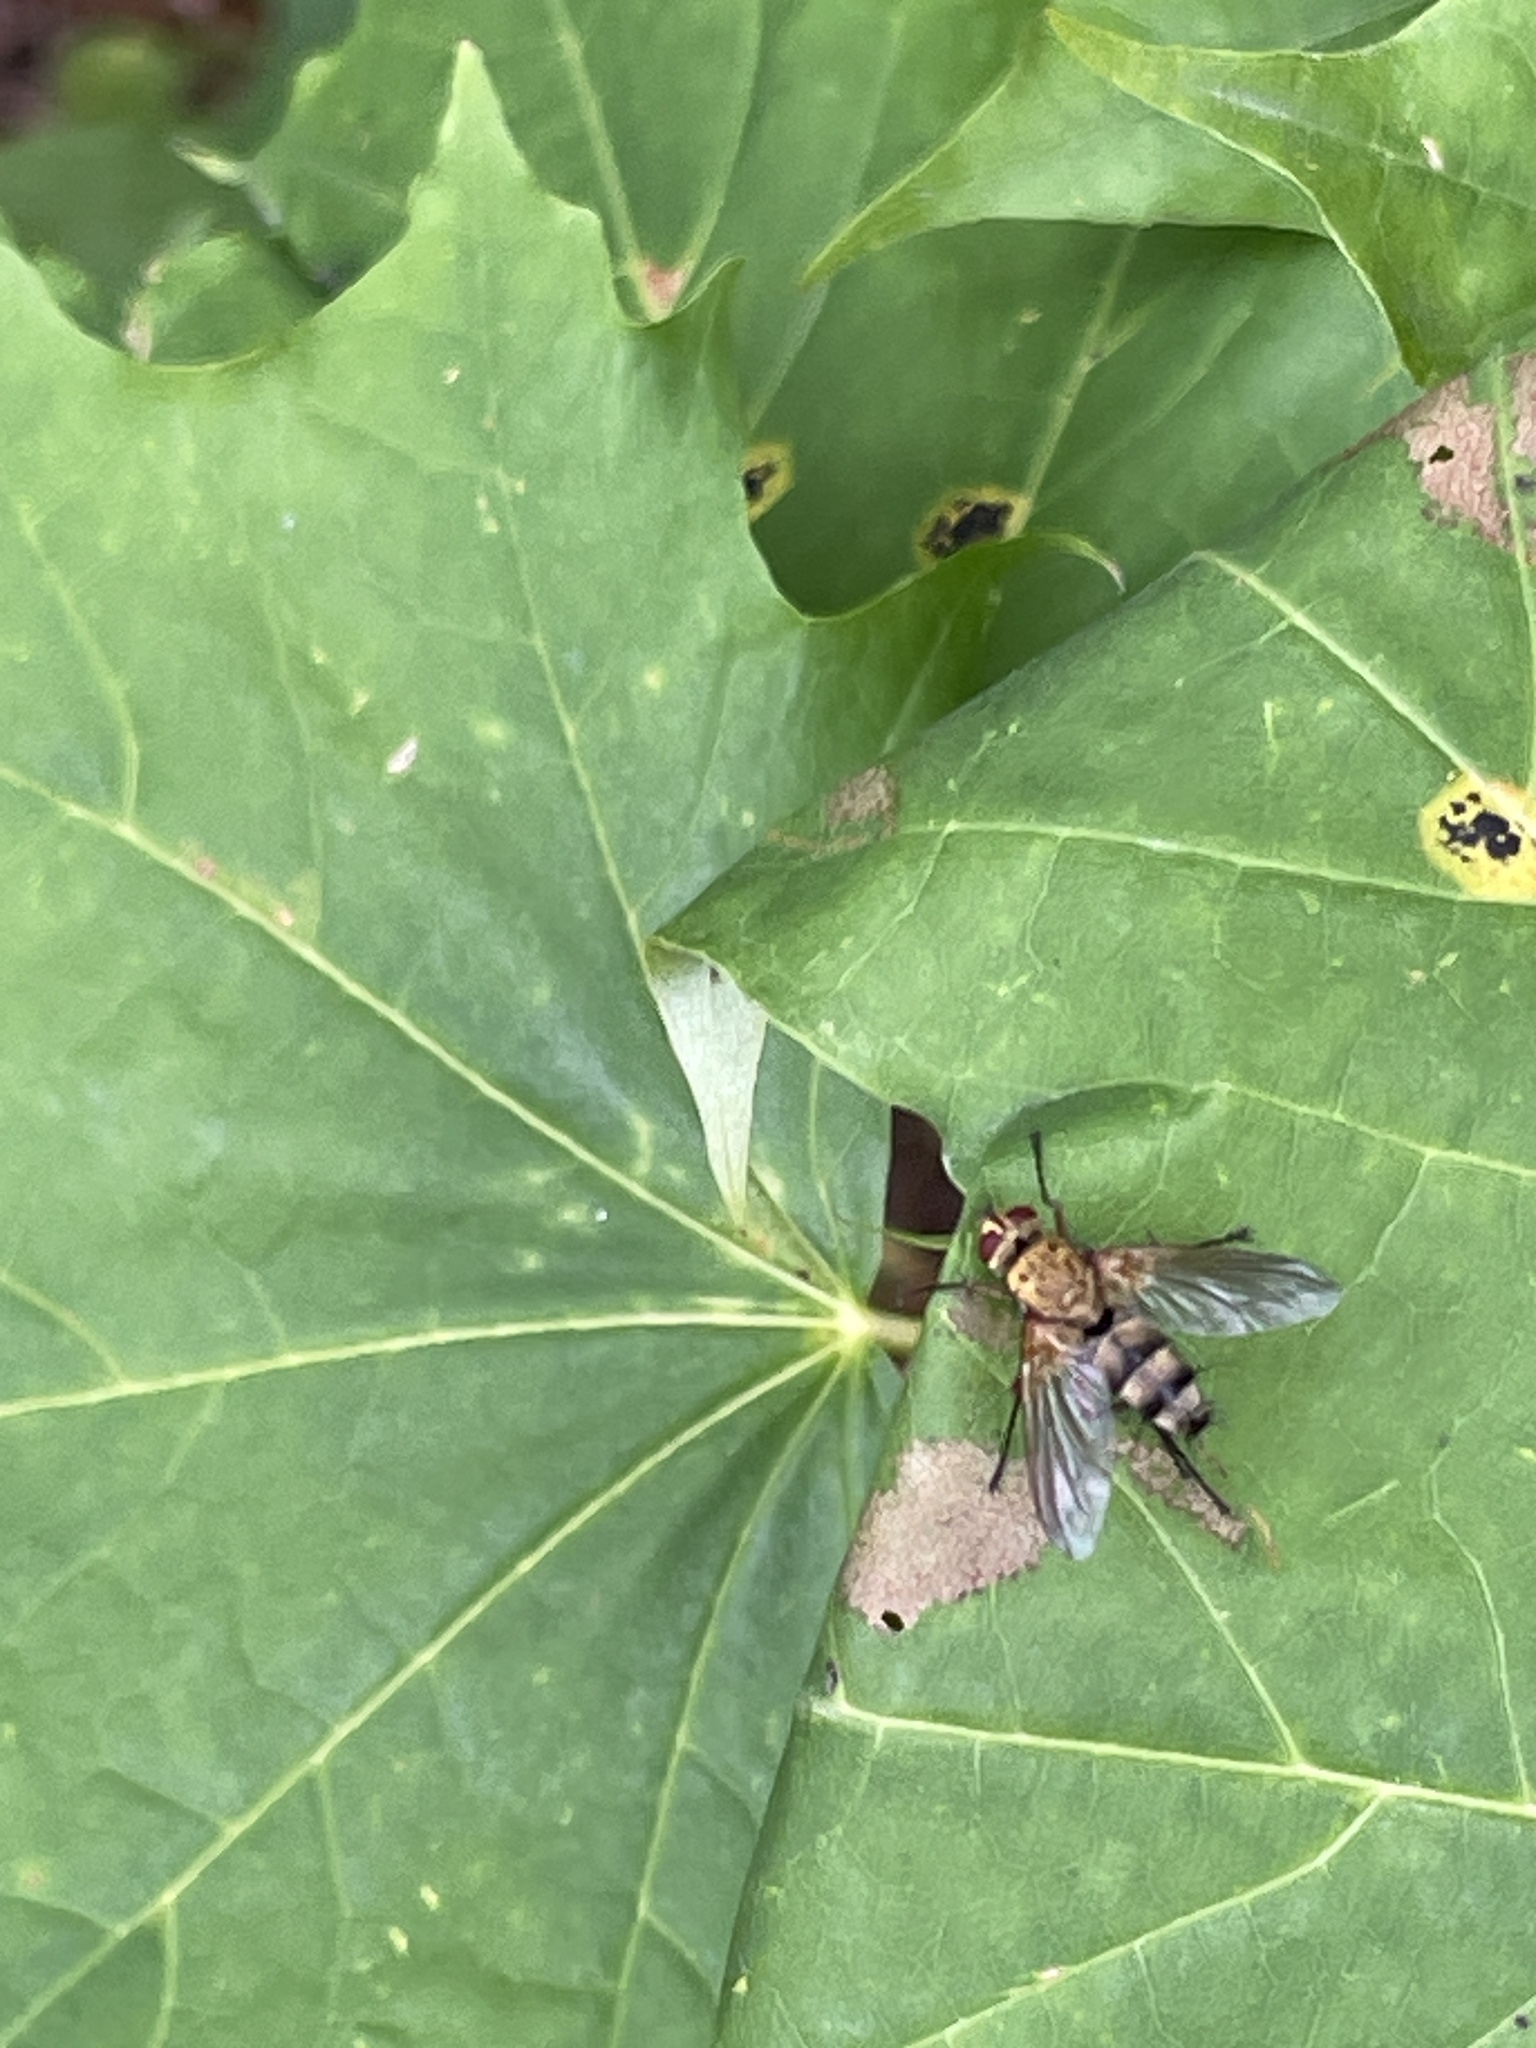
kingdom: Animalia
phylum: Arthropoda
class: Insecta
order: Diptera
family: Tachinidae
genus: Dexiosoma
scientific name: Dexiosoma caninum
